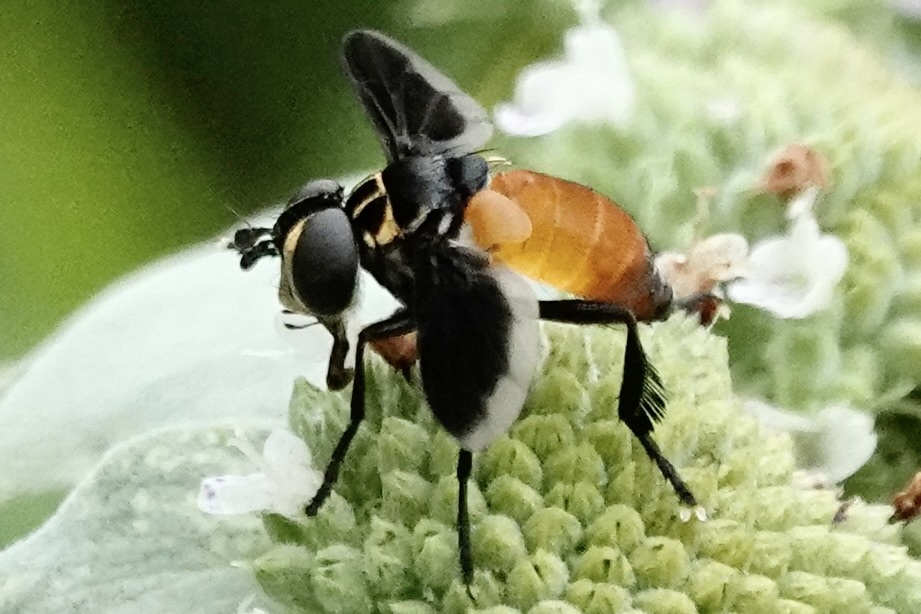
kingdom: Animalia
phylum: Arthropoda
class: Insecta
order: Diptera
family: Tachinidae
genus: Trichopoda
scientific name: Trichopoda pennipes
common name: Tachinid fly
